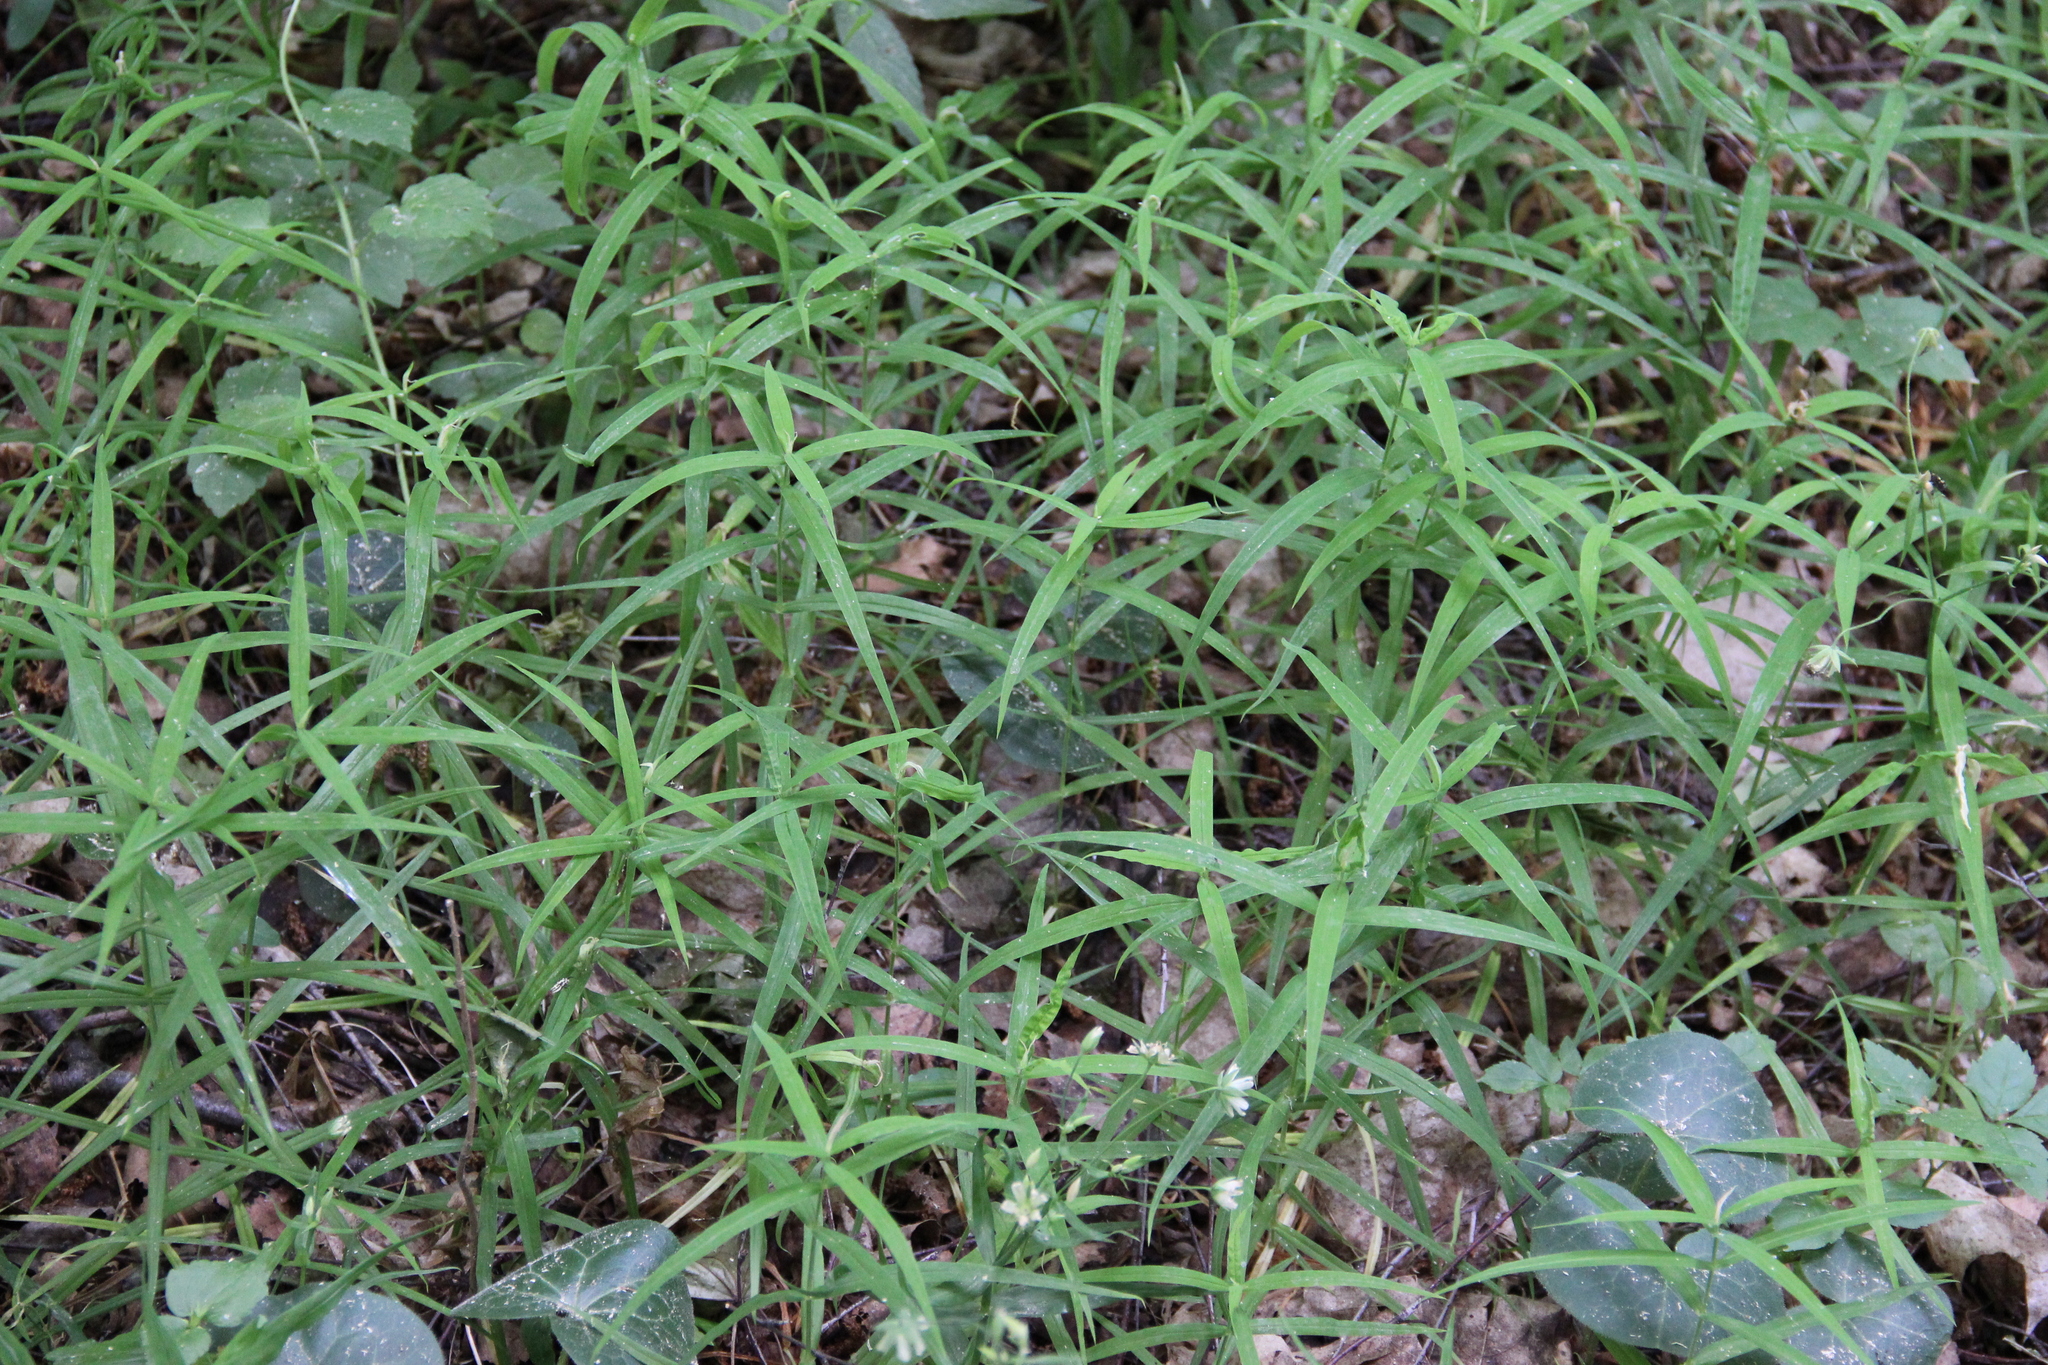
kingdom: Plantae
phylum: Tracheophyta
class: Magnoliopsida
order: Caryophyllales
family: Caryophyllaceae
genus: Rabelera
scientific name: Rabelera holostea
